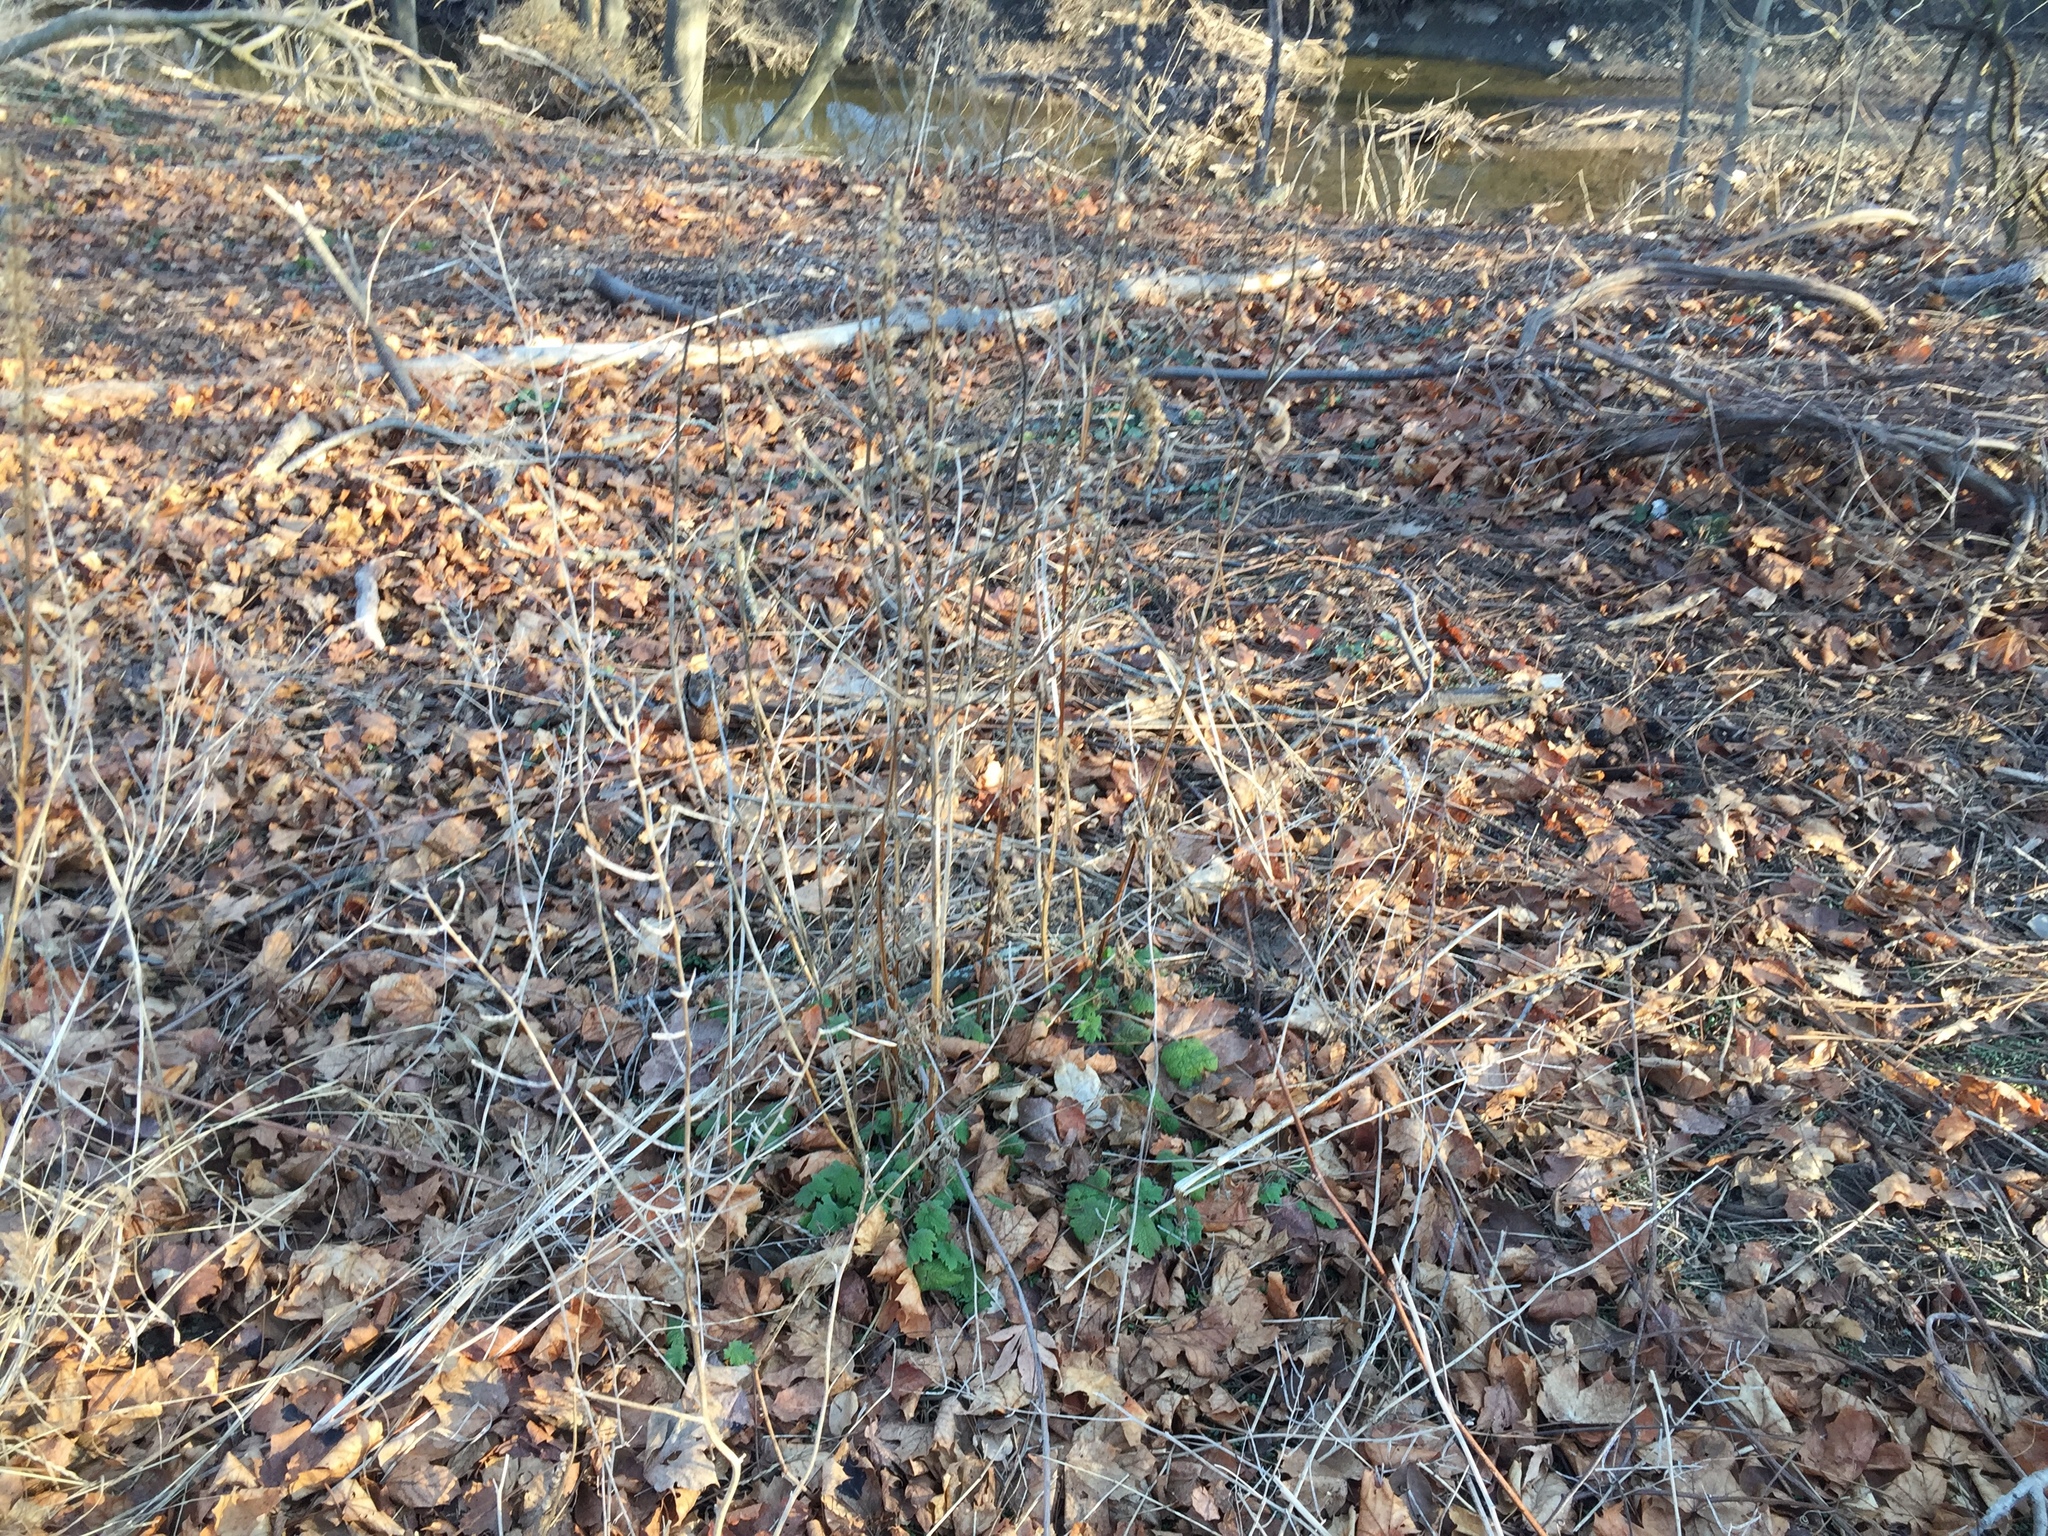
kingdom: Plantae
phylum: Tracheophyta
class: Magnoliopsida
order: Lamiales
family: Lamiaceae
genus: Leonurus
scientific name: Leonurus cardiaca
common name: Motherwort
